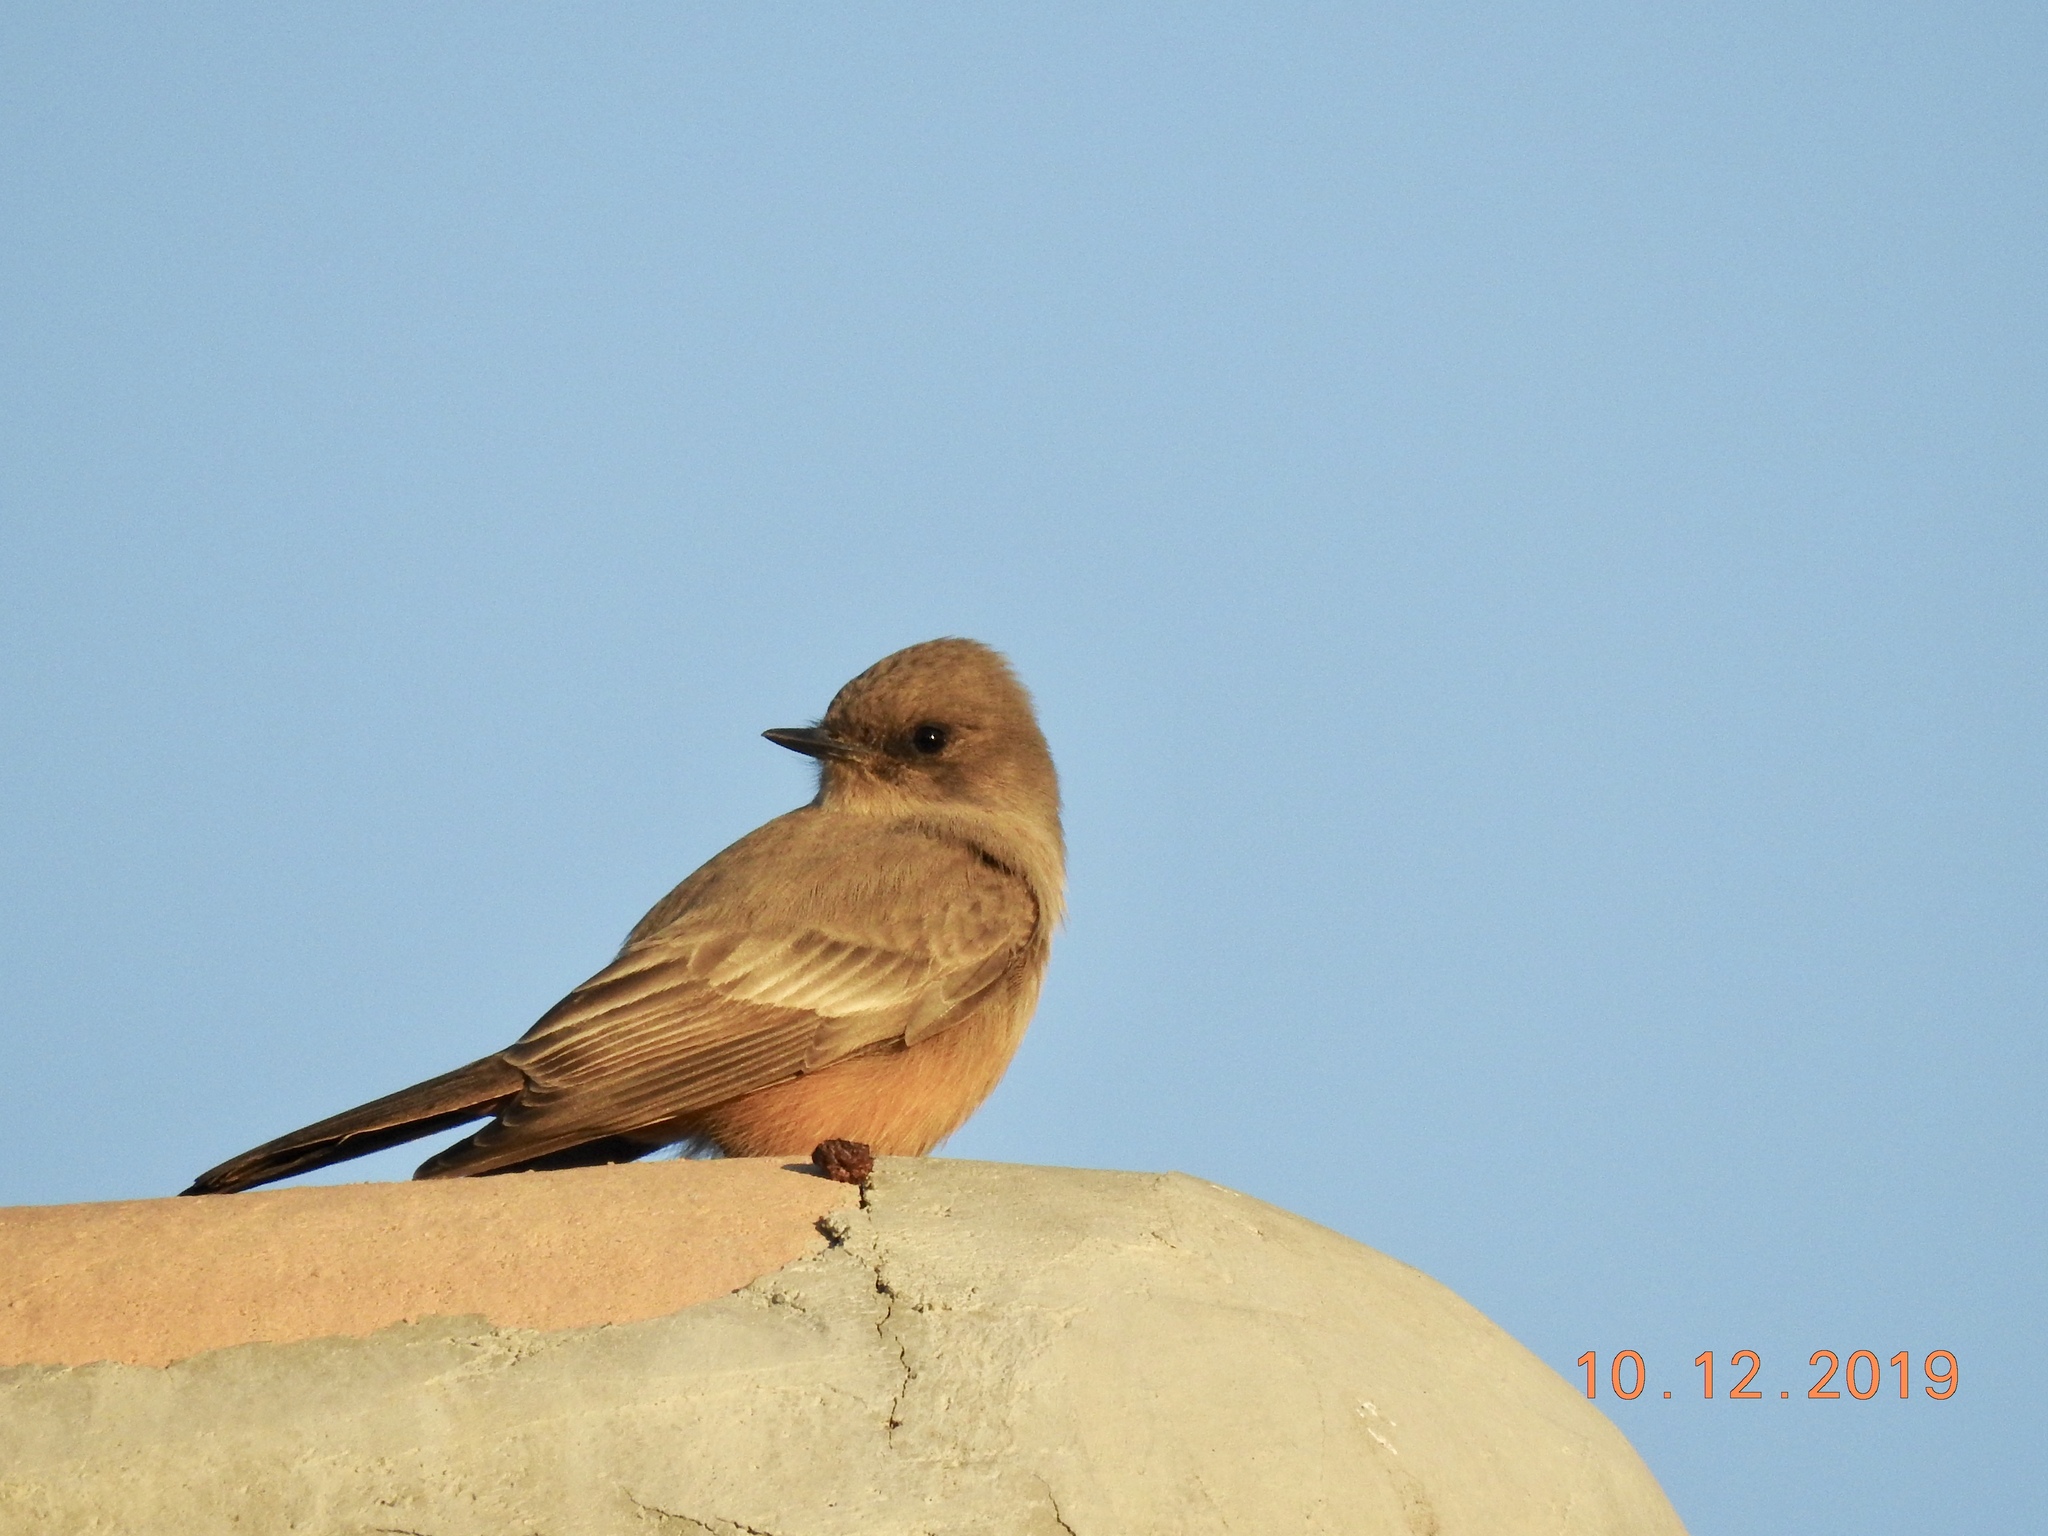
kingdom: Animalia
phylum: Chordata
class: Aves
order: Passeriformes
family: Tyrannidae
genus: Sayornis
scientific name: Sayornis saya
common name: Say's phoebe
